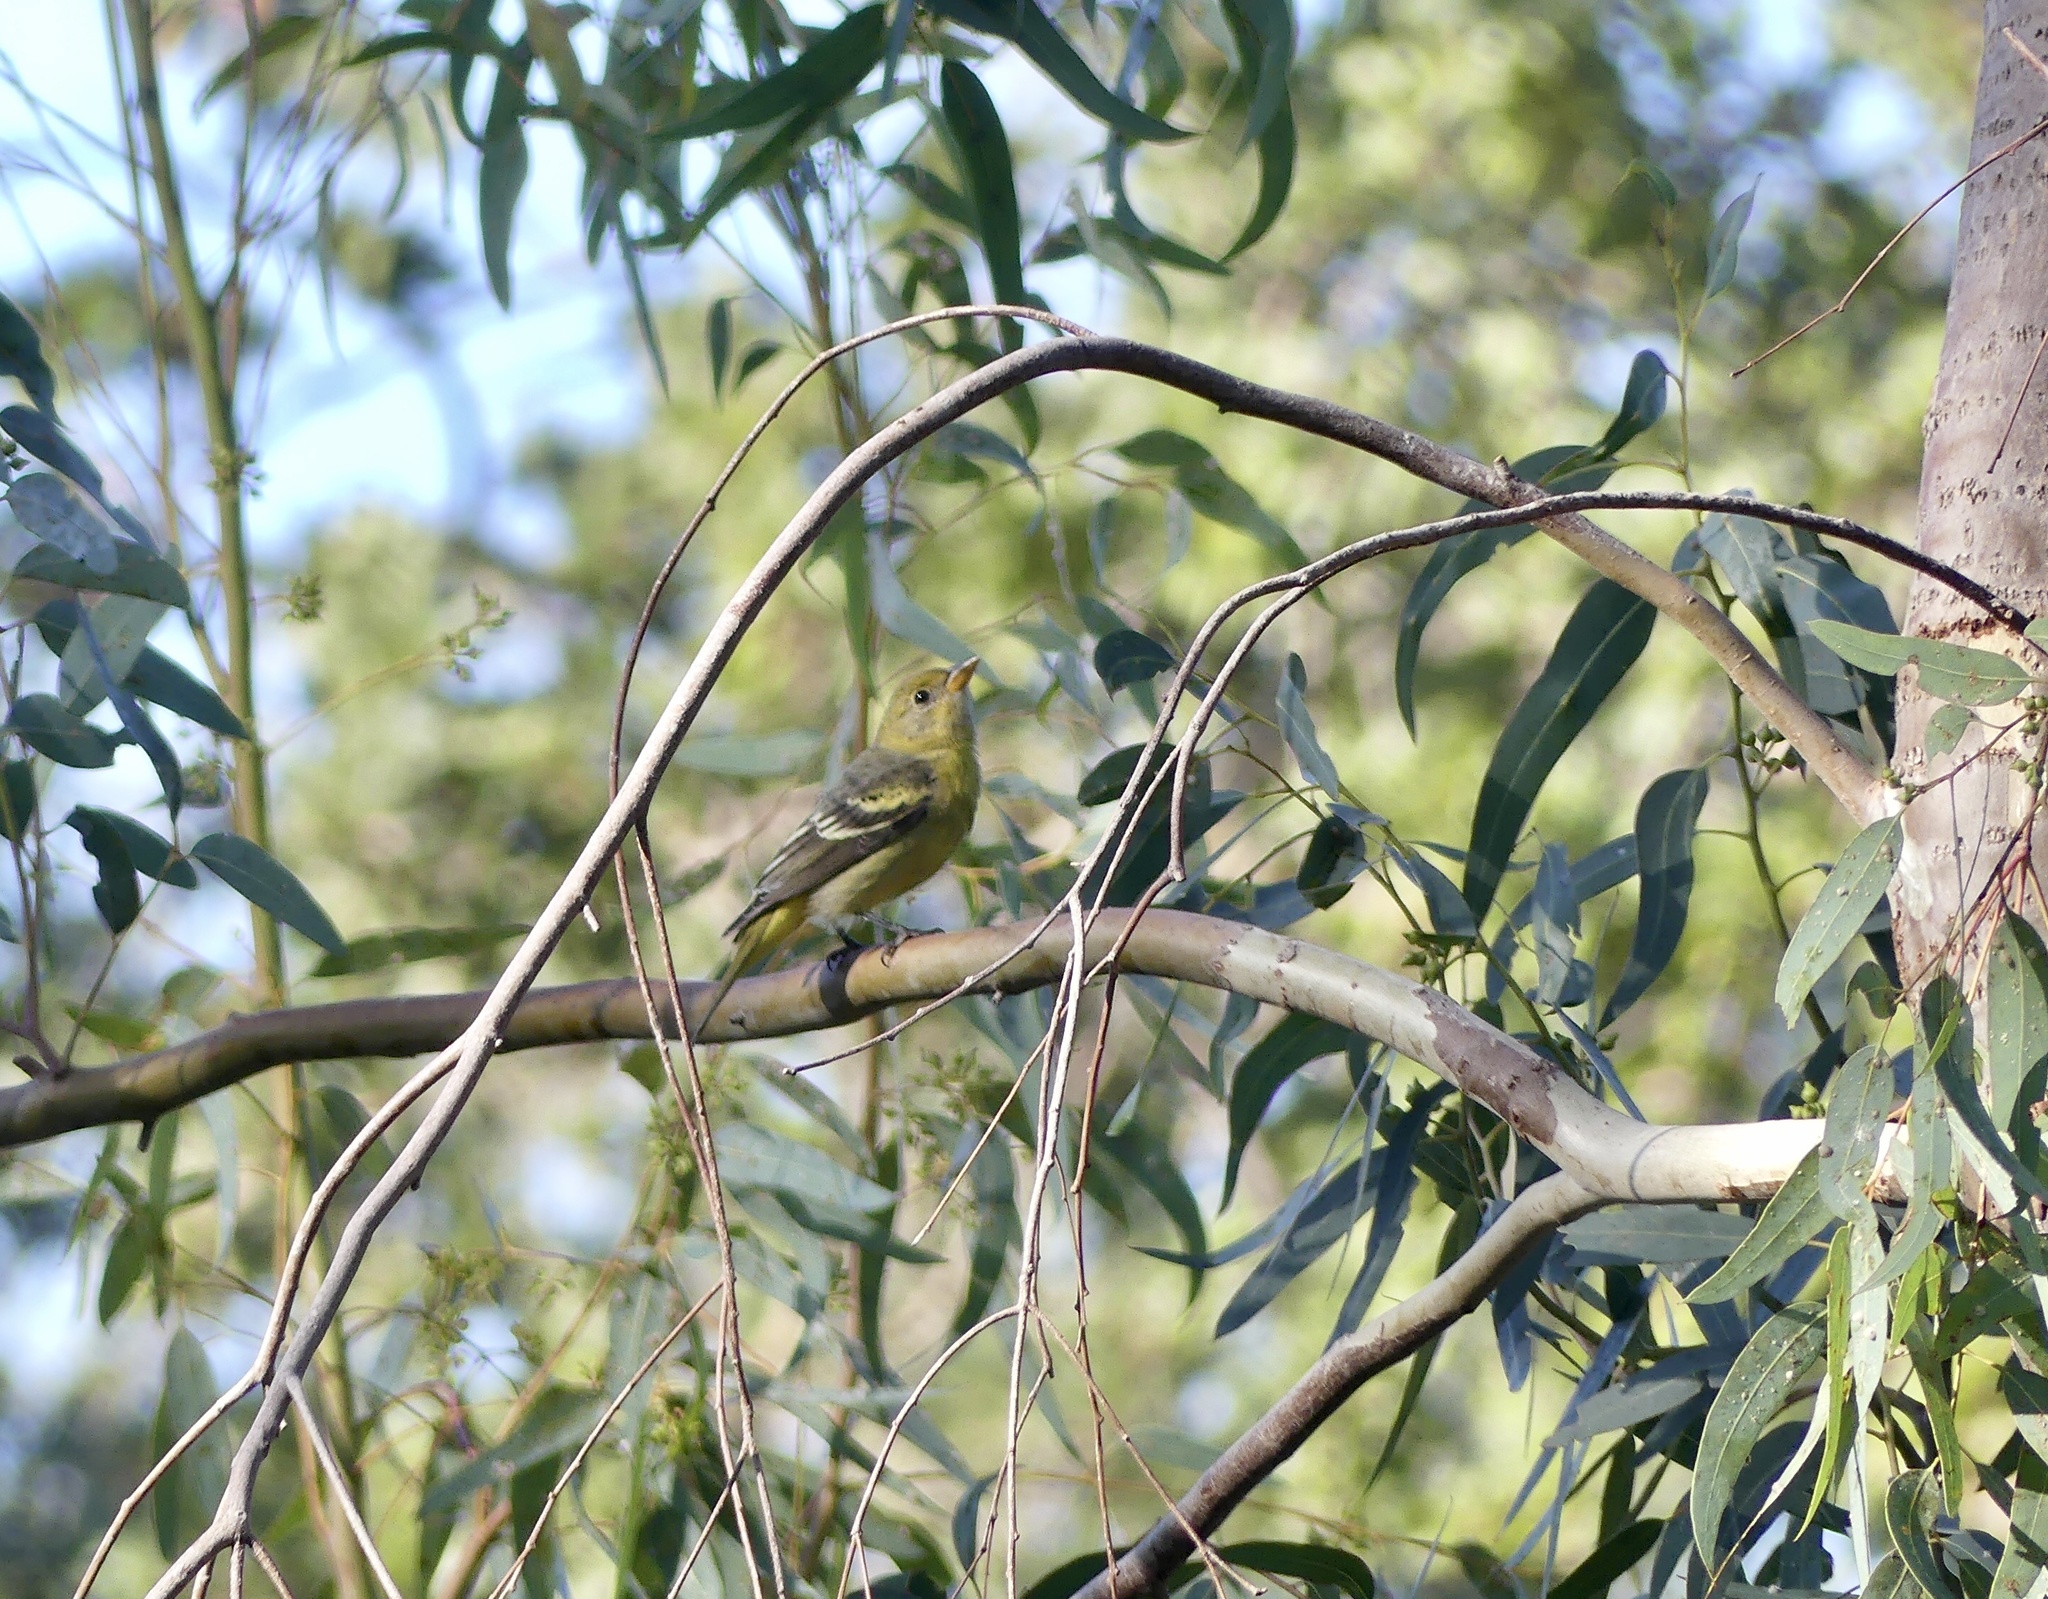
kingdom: Animalia
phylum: Chordata
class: Aves
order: Passeriformes
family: Cardinalidae
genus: Piranga
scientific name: Piranga ludoviciana
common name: Western tanager
